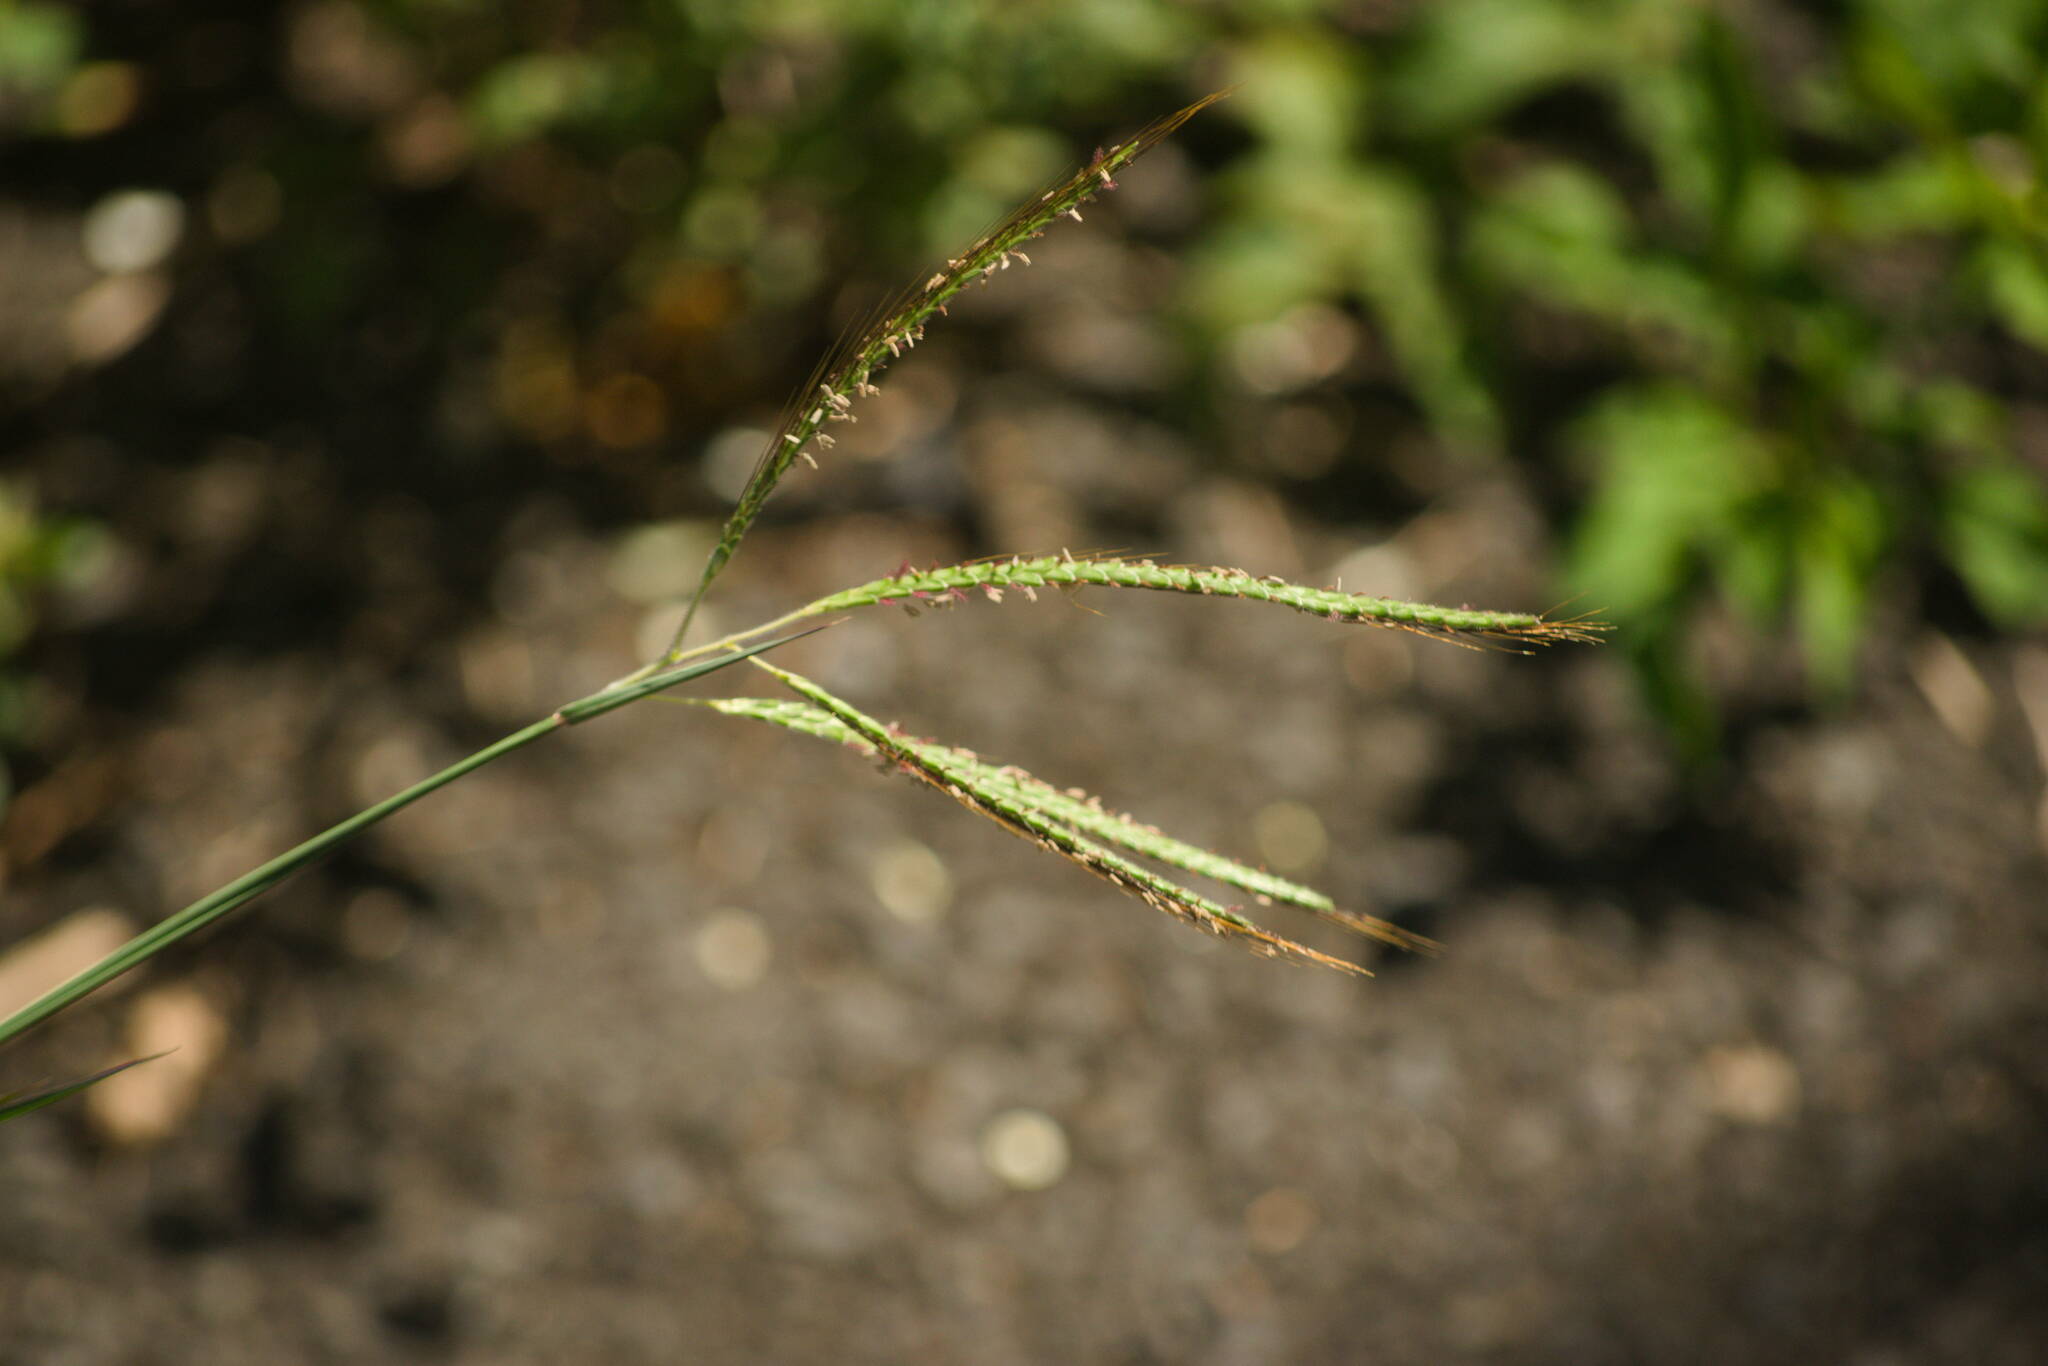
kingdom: Plantae
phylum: Tracheophyta
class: Liliopsida
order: Poales
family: Poaceae
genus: Dichanthium
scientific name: Dichanthium aristatum
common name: Angleton bluestem
